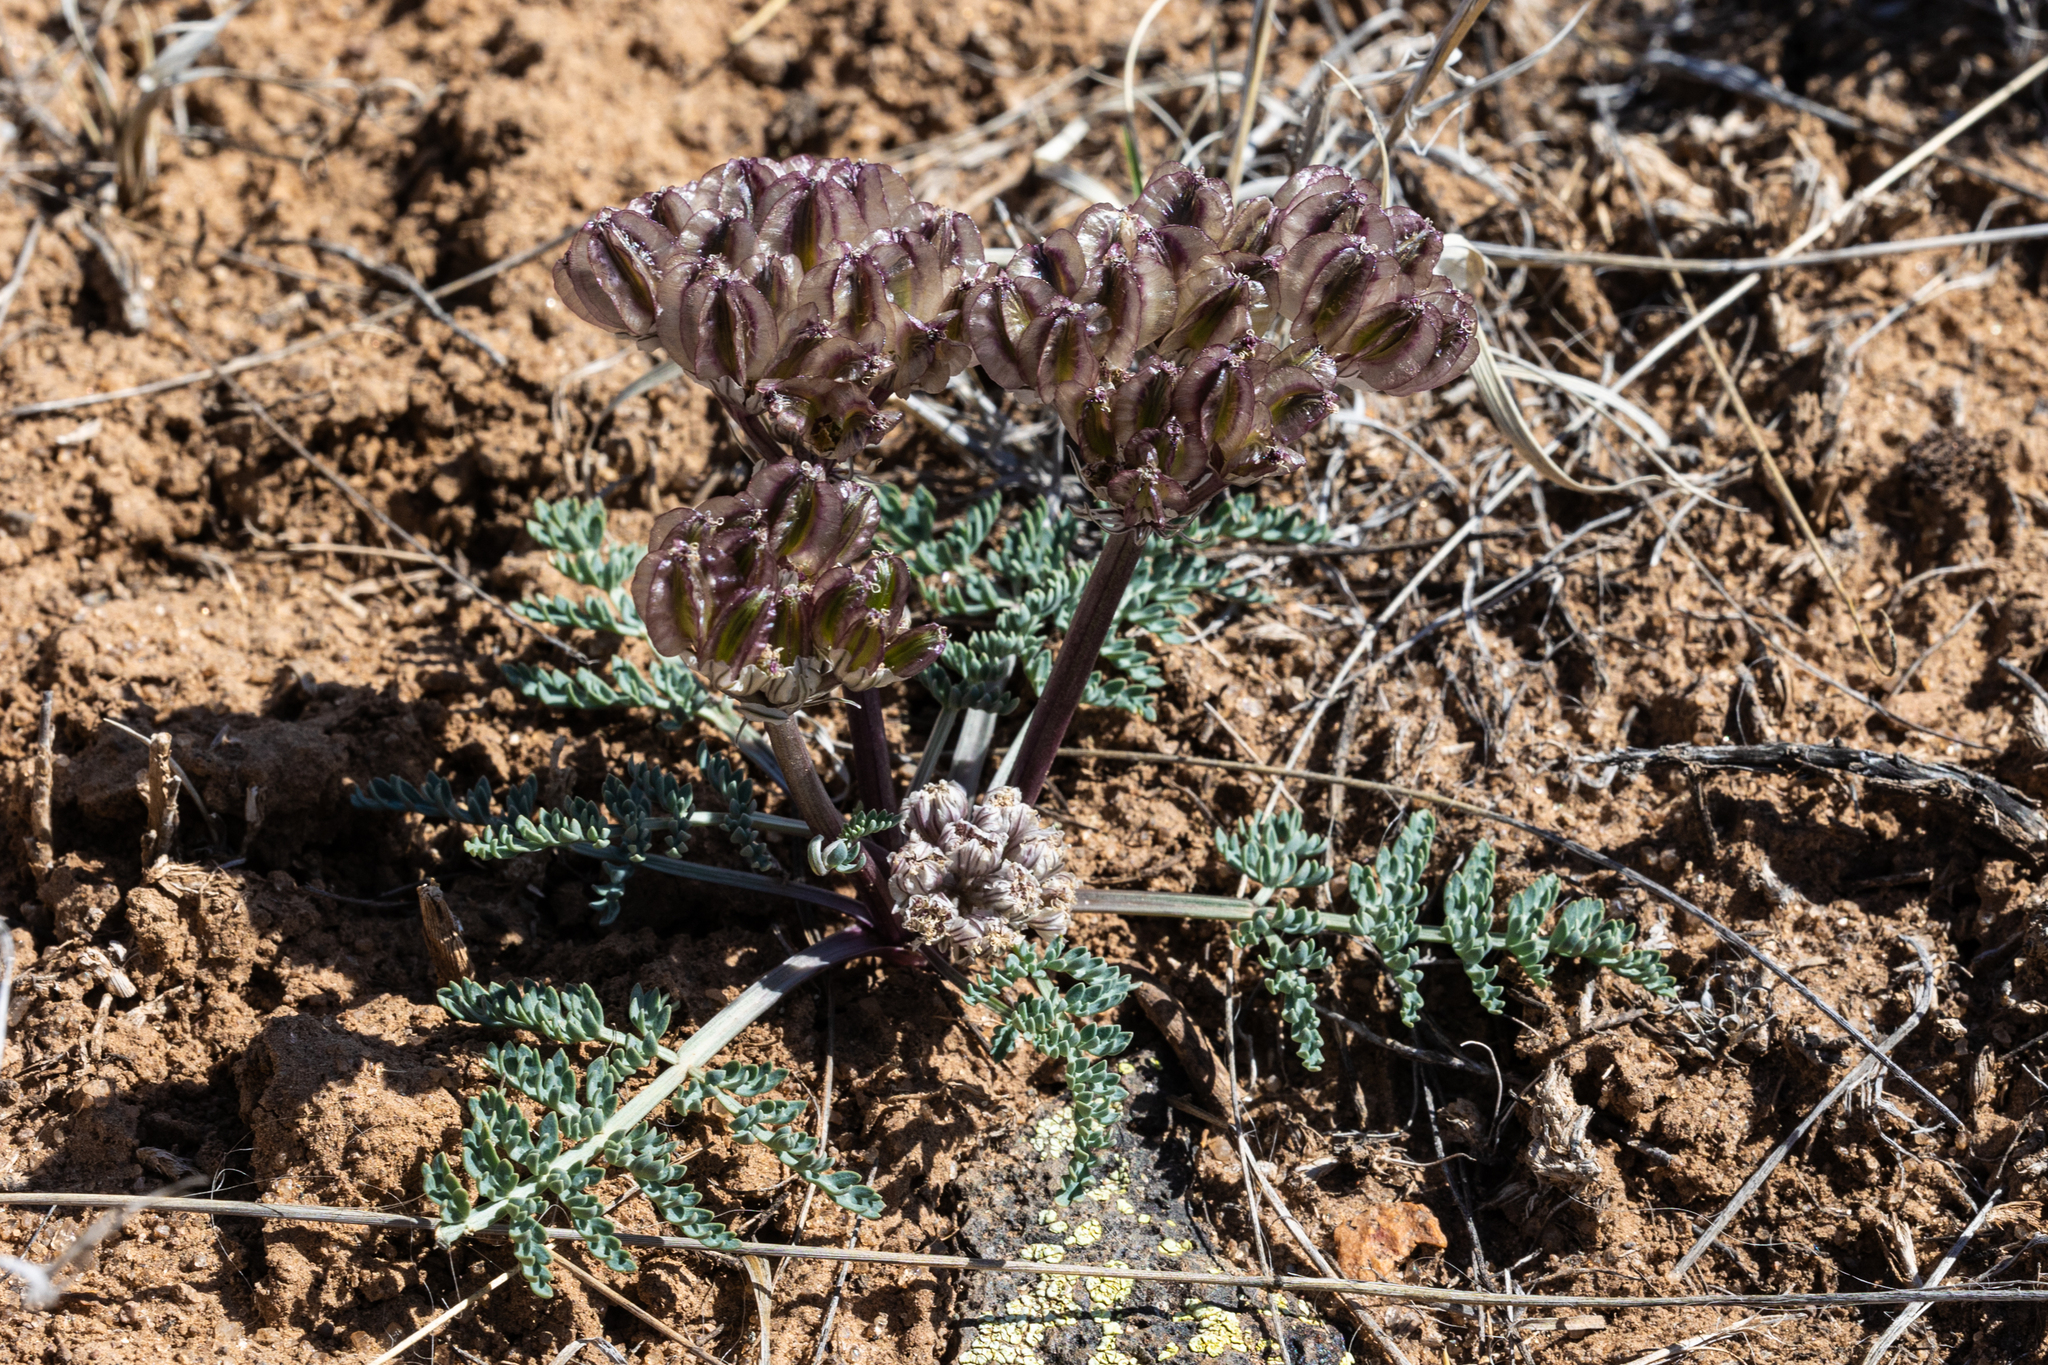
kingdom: Plantae
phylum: Tracheophyta
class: Magnoliopsida
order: Apiales
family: Apiaceae
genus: Vesper
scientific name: Vesper constancei
